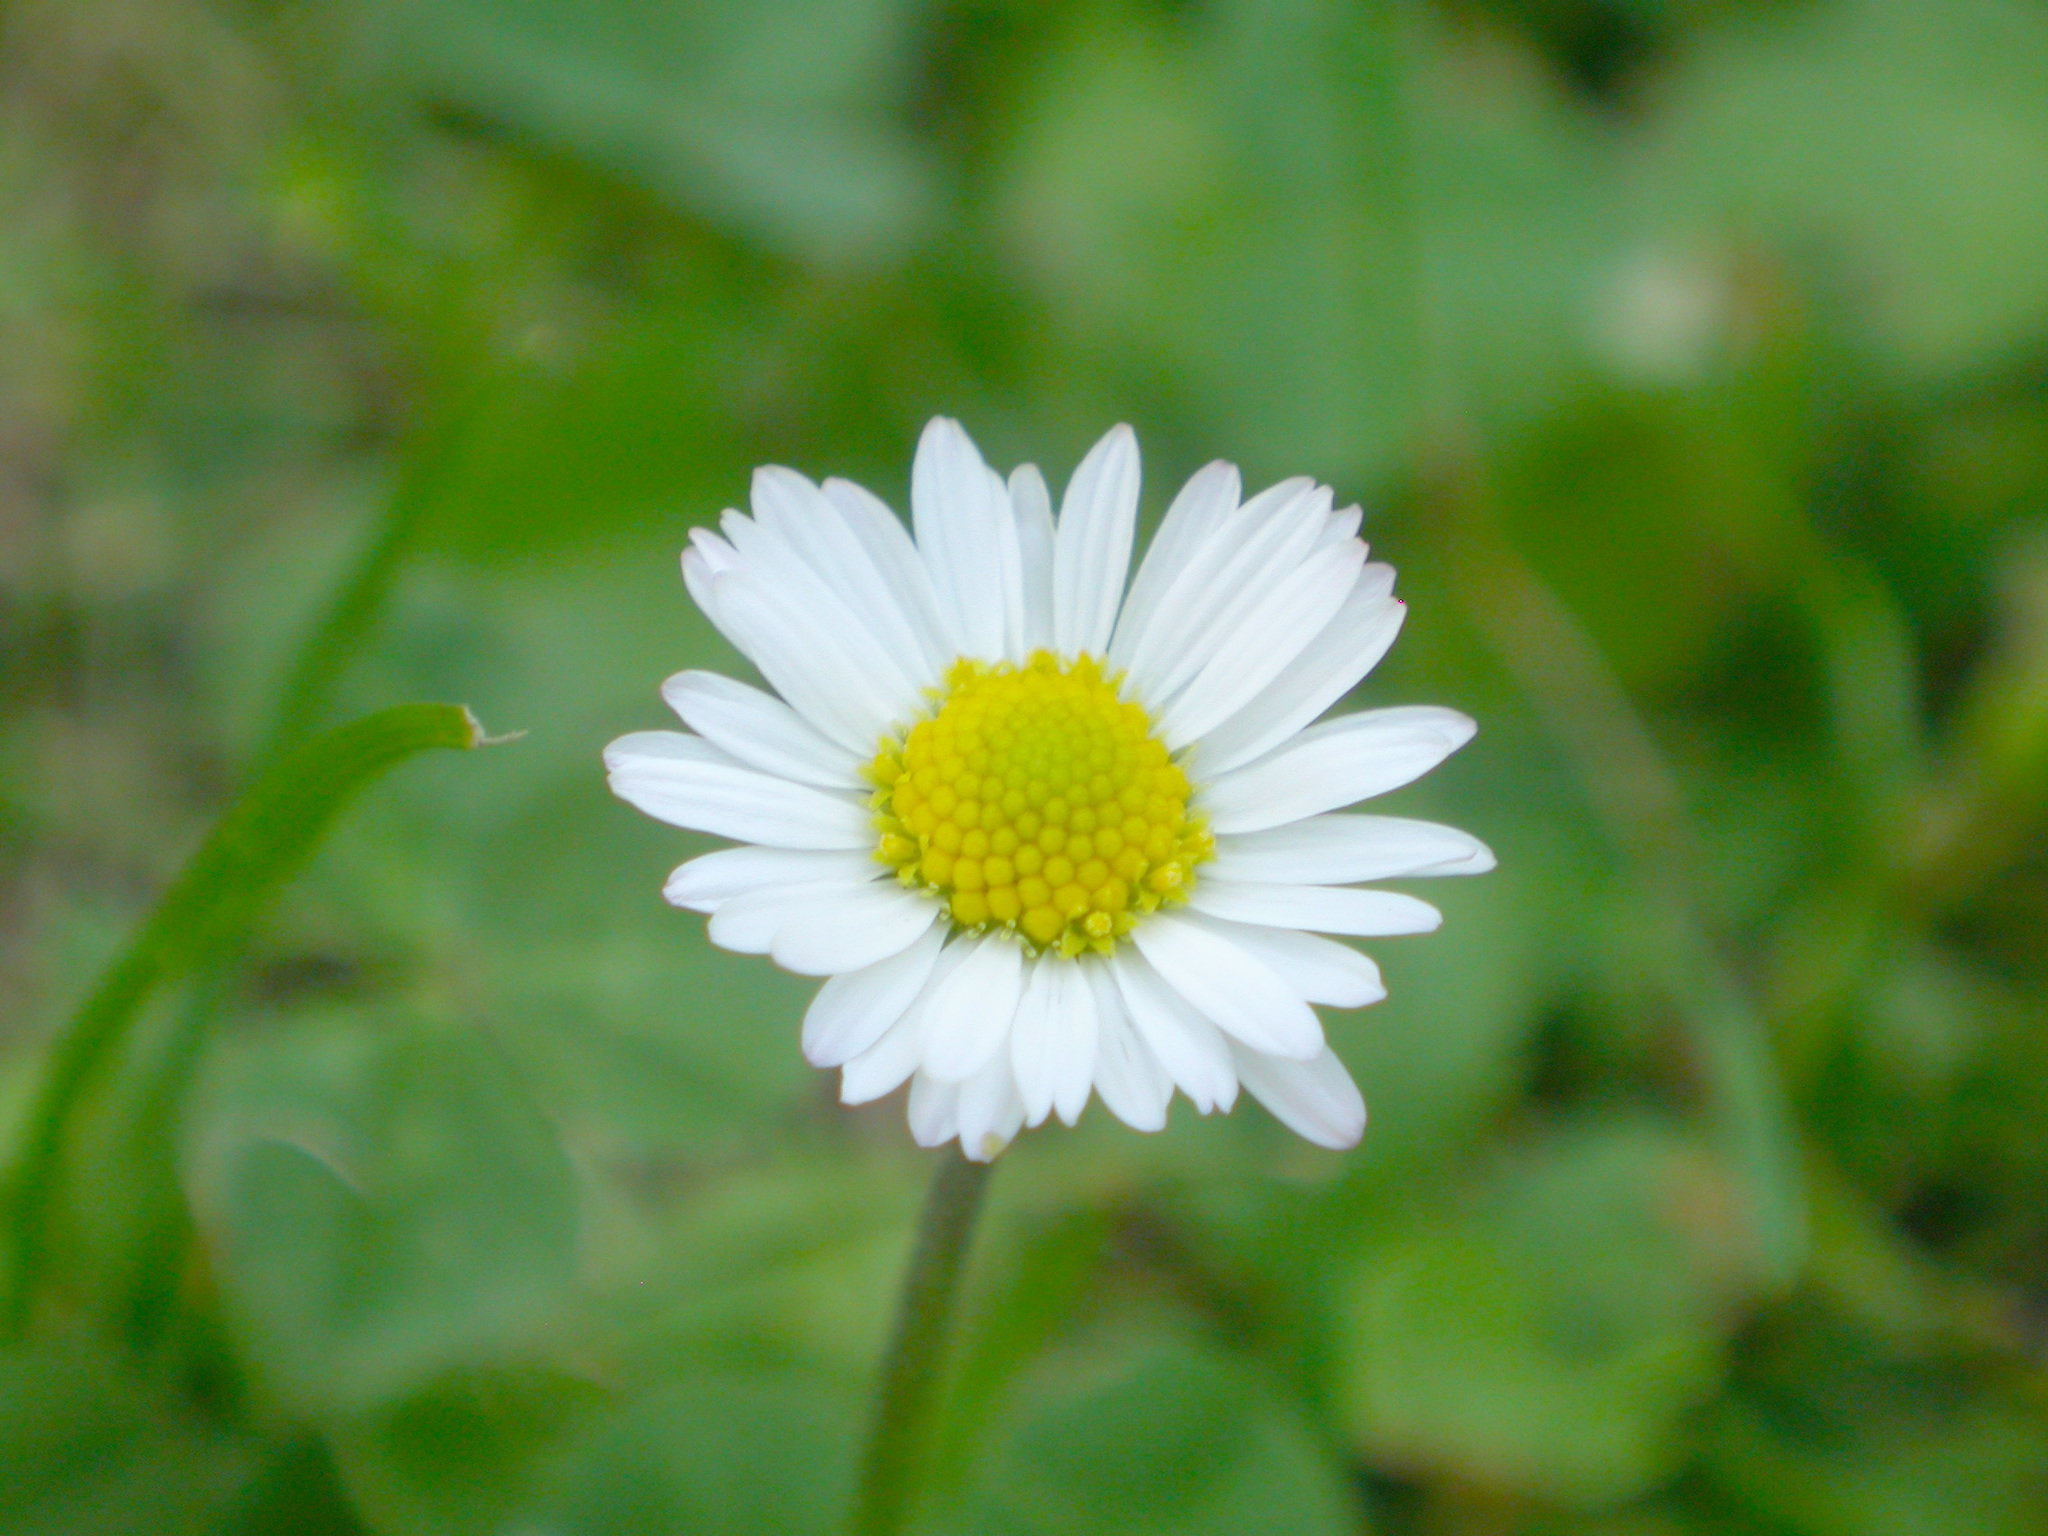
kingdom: Plantae
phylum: Tracheophyta
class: Magnoliopsida
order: Asterales
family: Asteraceae
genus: Bellis
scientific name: Bellis perennis
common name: Lawndaisy
